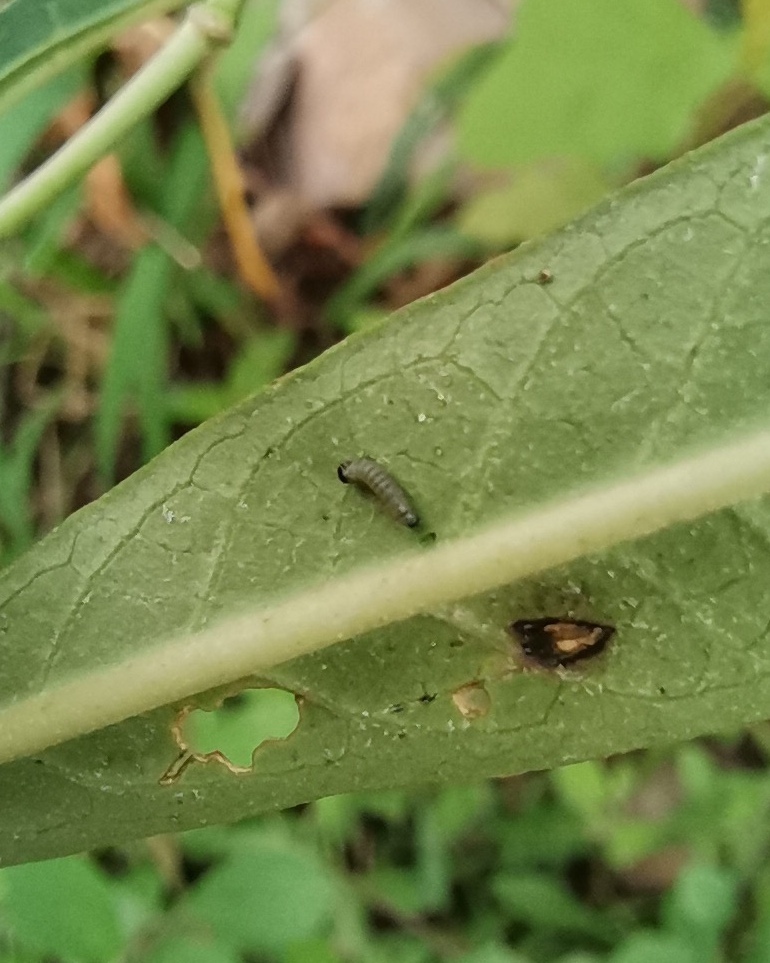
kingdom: Animalia
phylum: Arthropoda
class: Insecta
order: Lepidoptera
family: Nymphalidae
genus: Danaus
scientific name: Danaus plexippus
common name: Monarch
